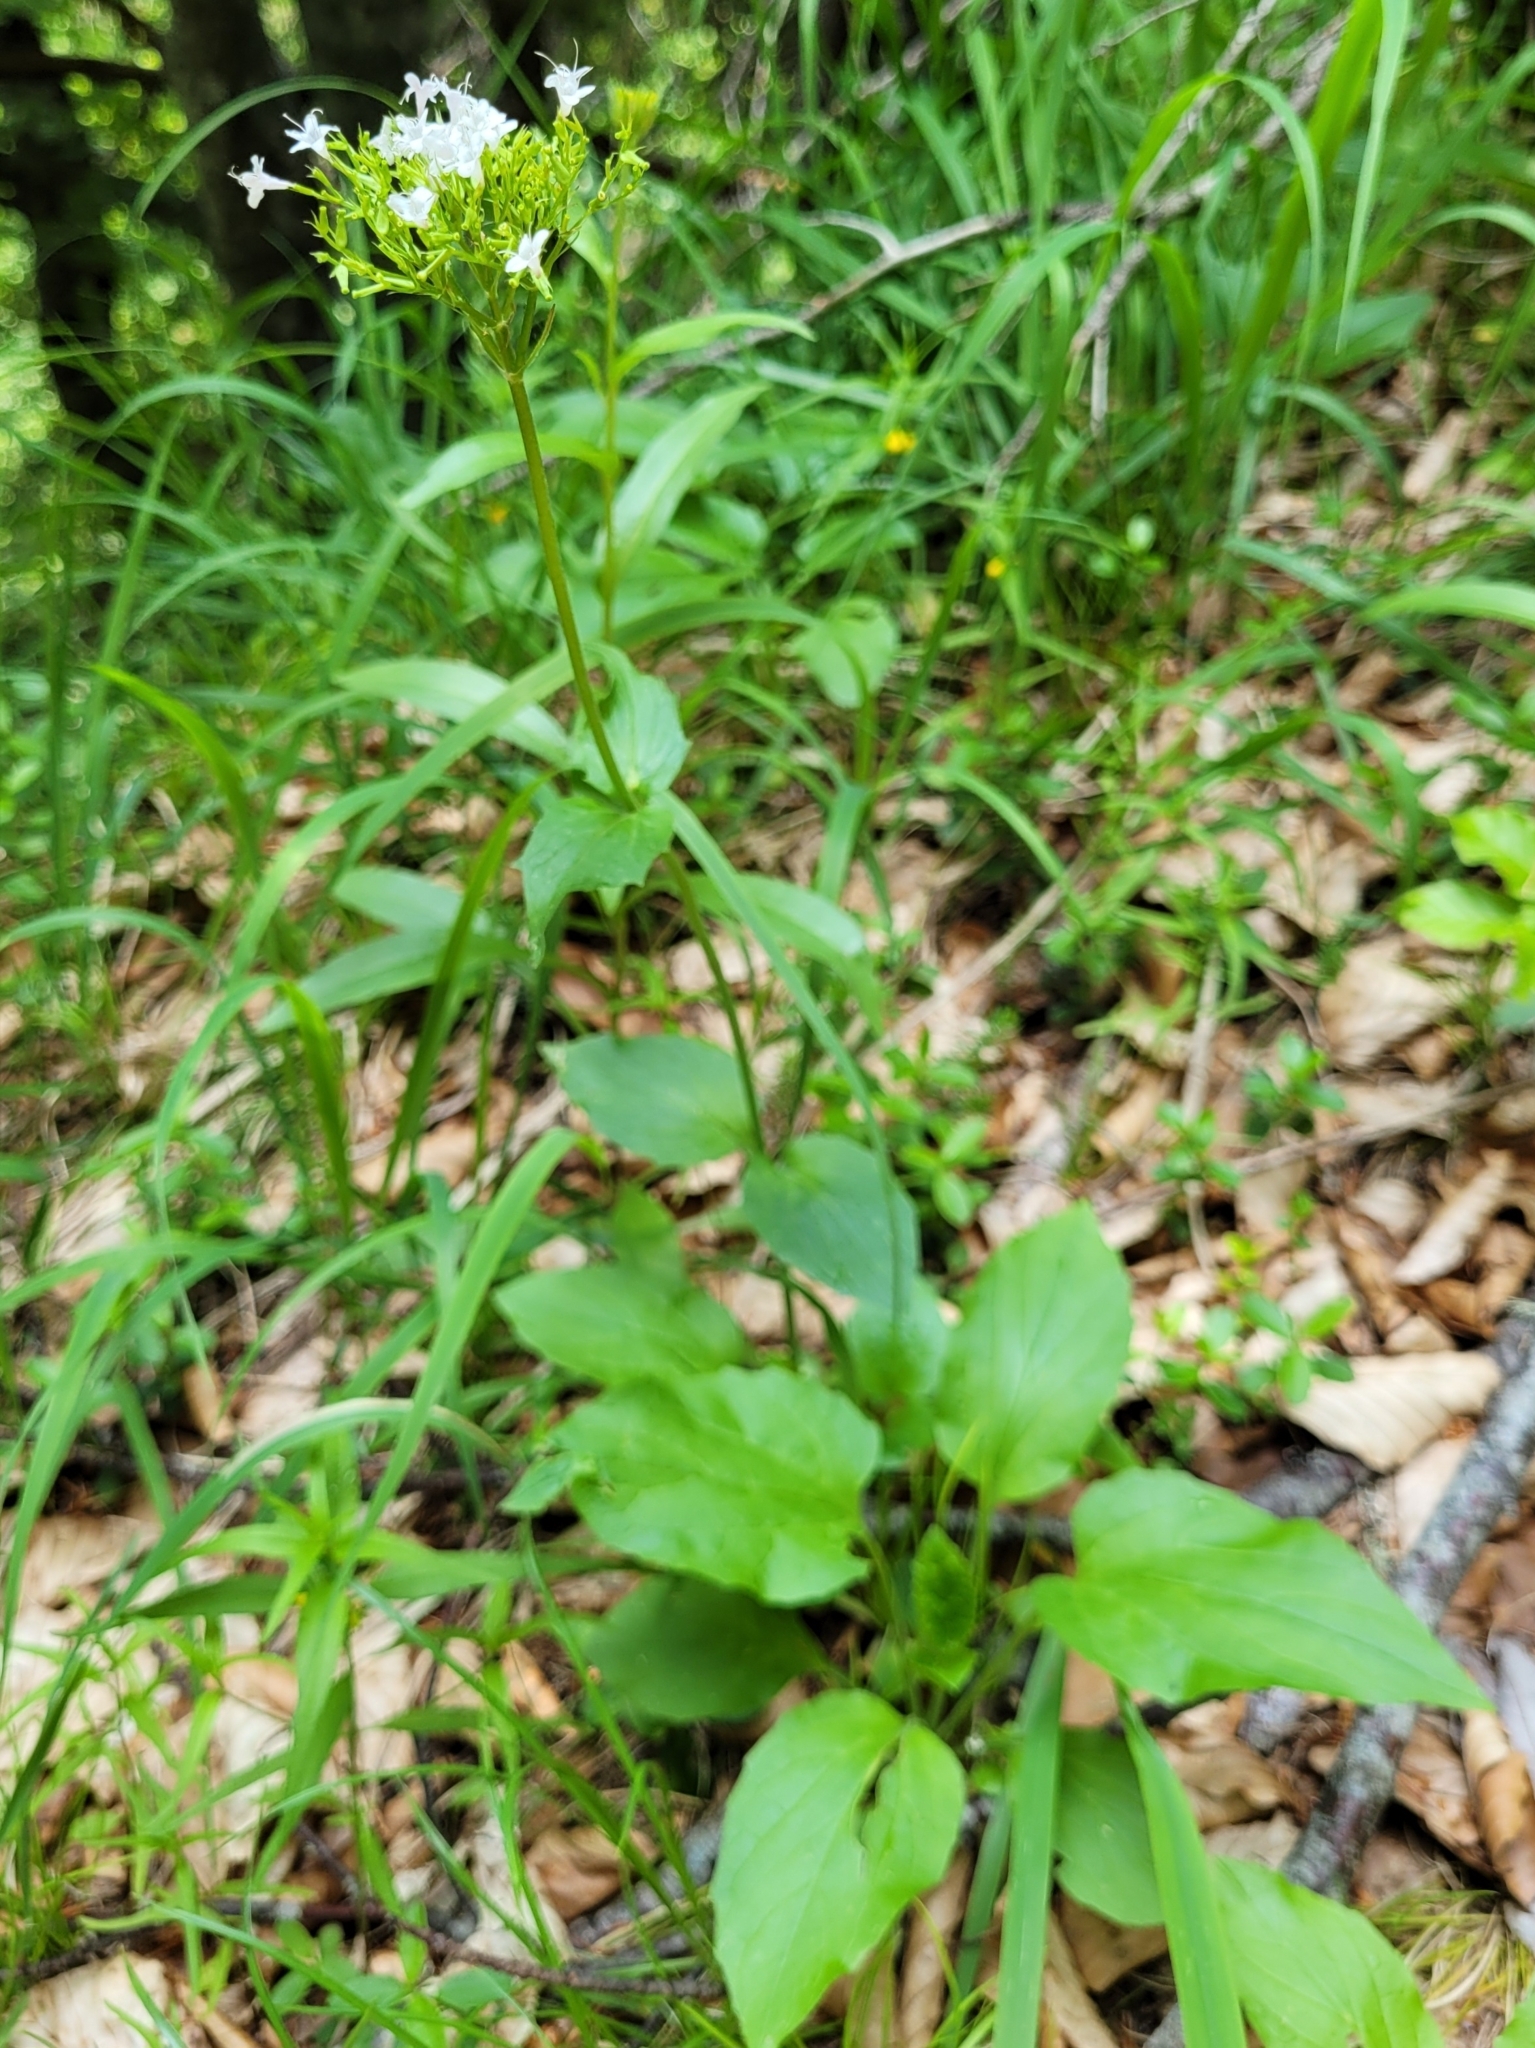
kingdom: Plantae
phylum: Tracheophyta
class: Magnoliopsida
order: Dipsacales
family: Caprifoliaceae
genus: Valeriana
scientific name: Valeriana montana
